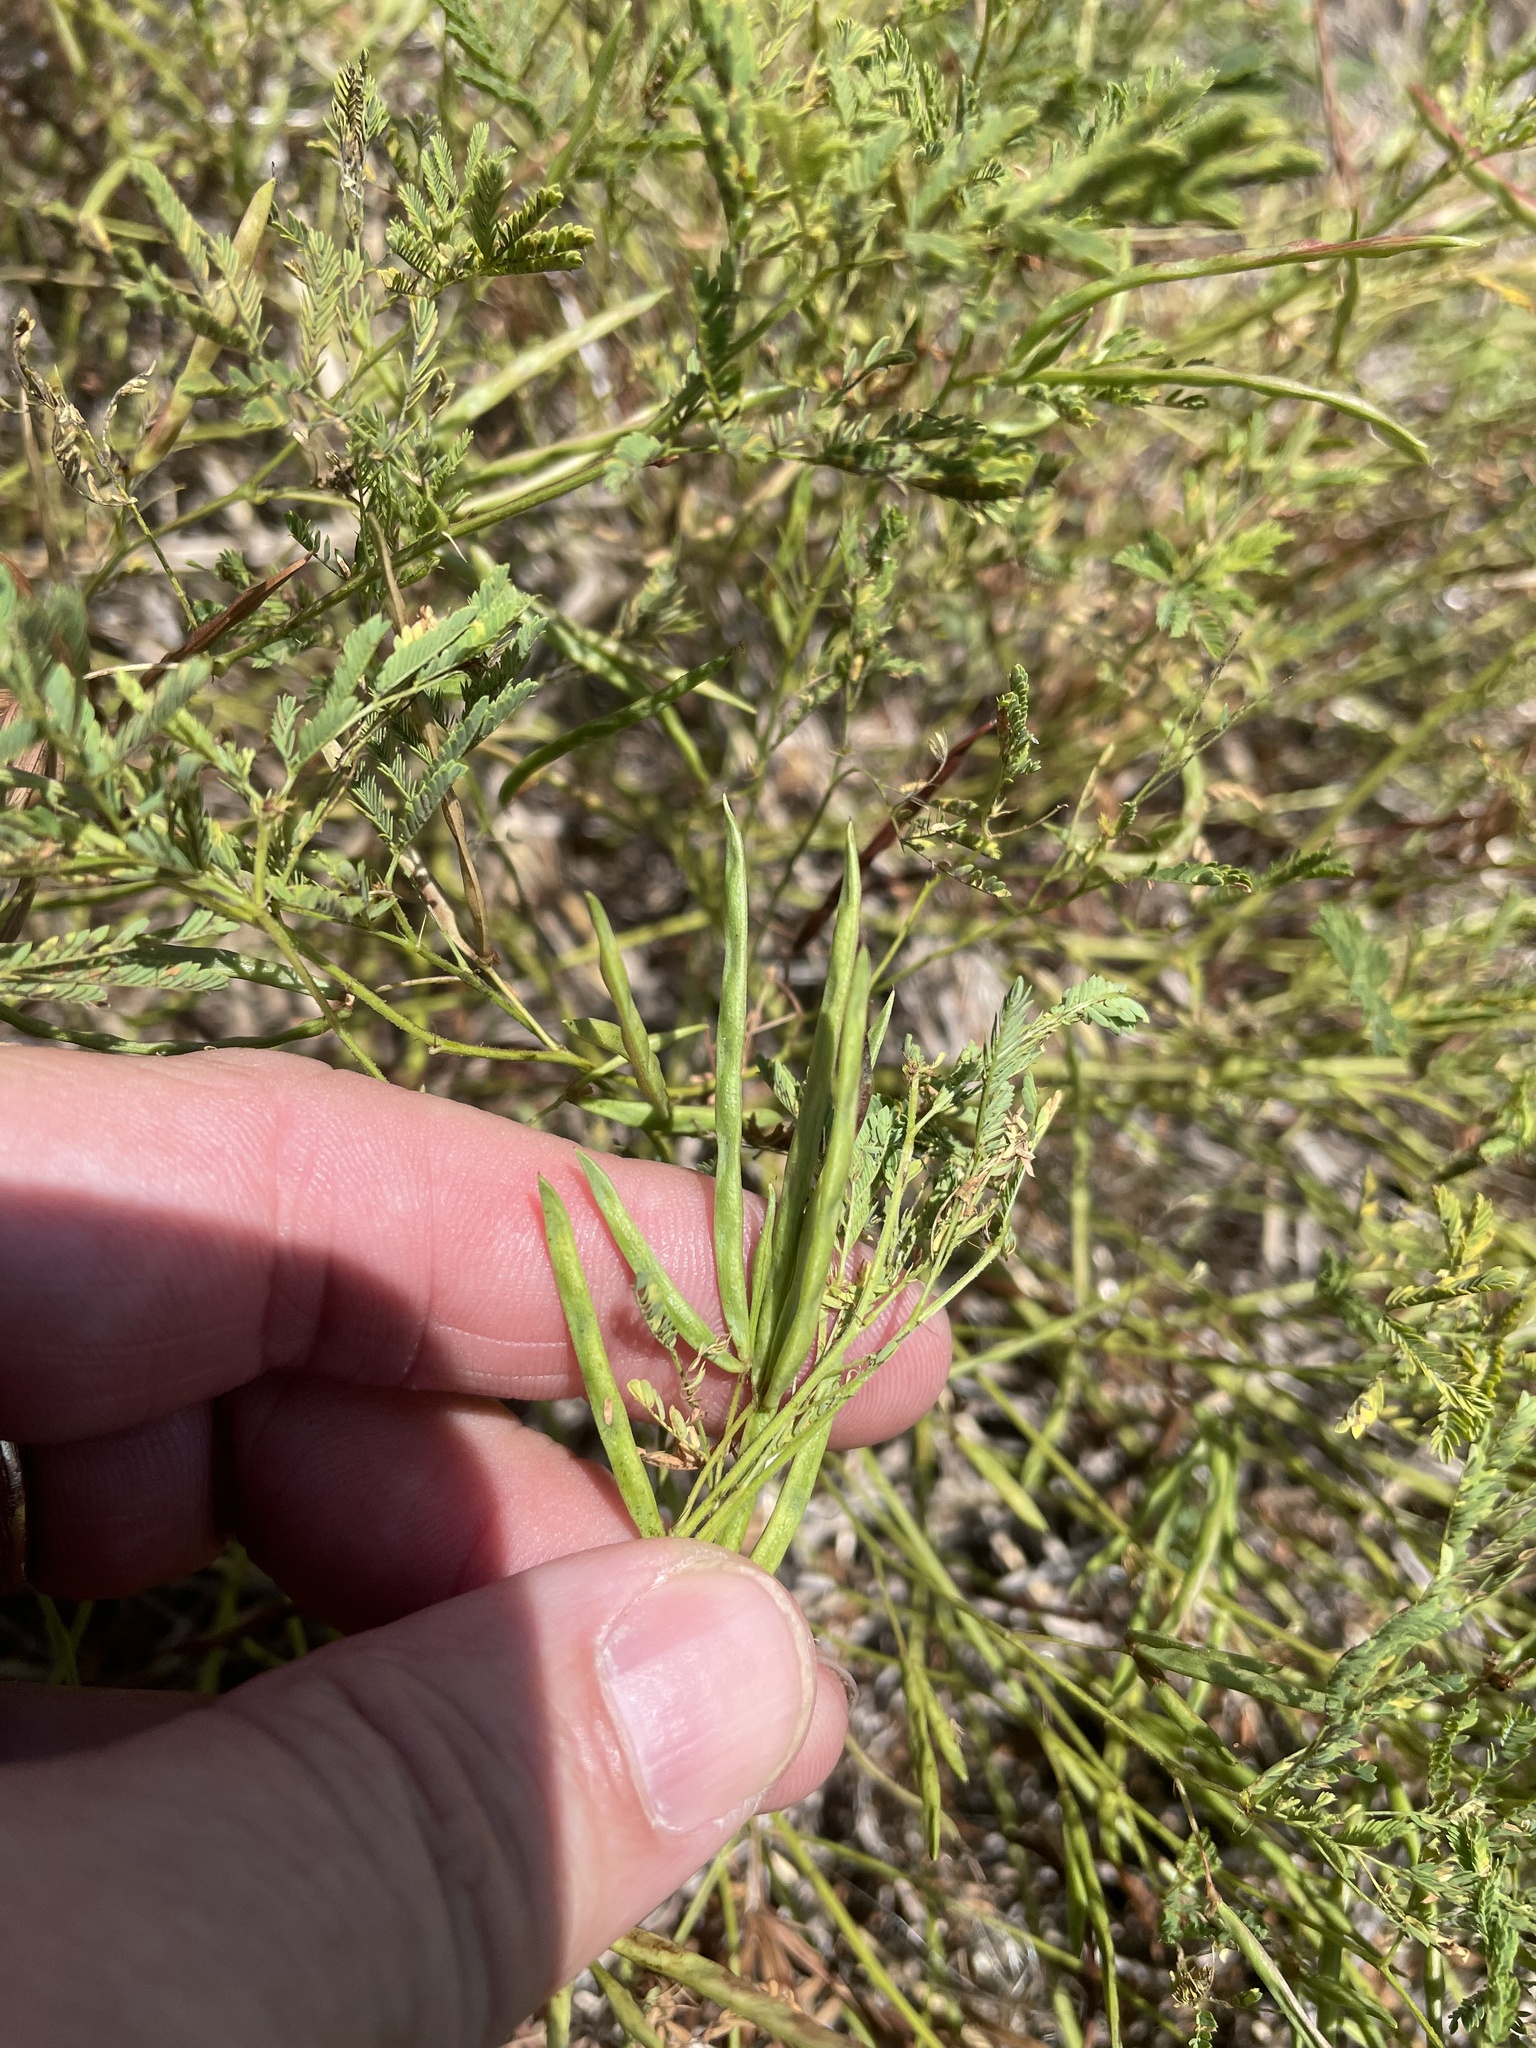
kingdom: Plantae
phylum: Tracheophyta
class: Magnoliopsida
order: Fabales
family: Fabaceae
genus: Desmanthus
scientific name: Desmanthus leptolobus
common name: Prairie-mimosa
